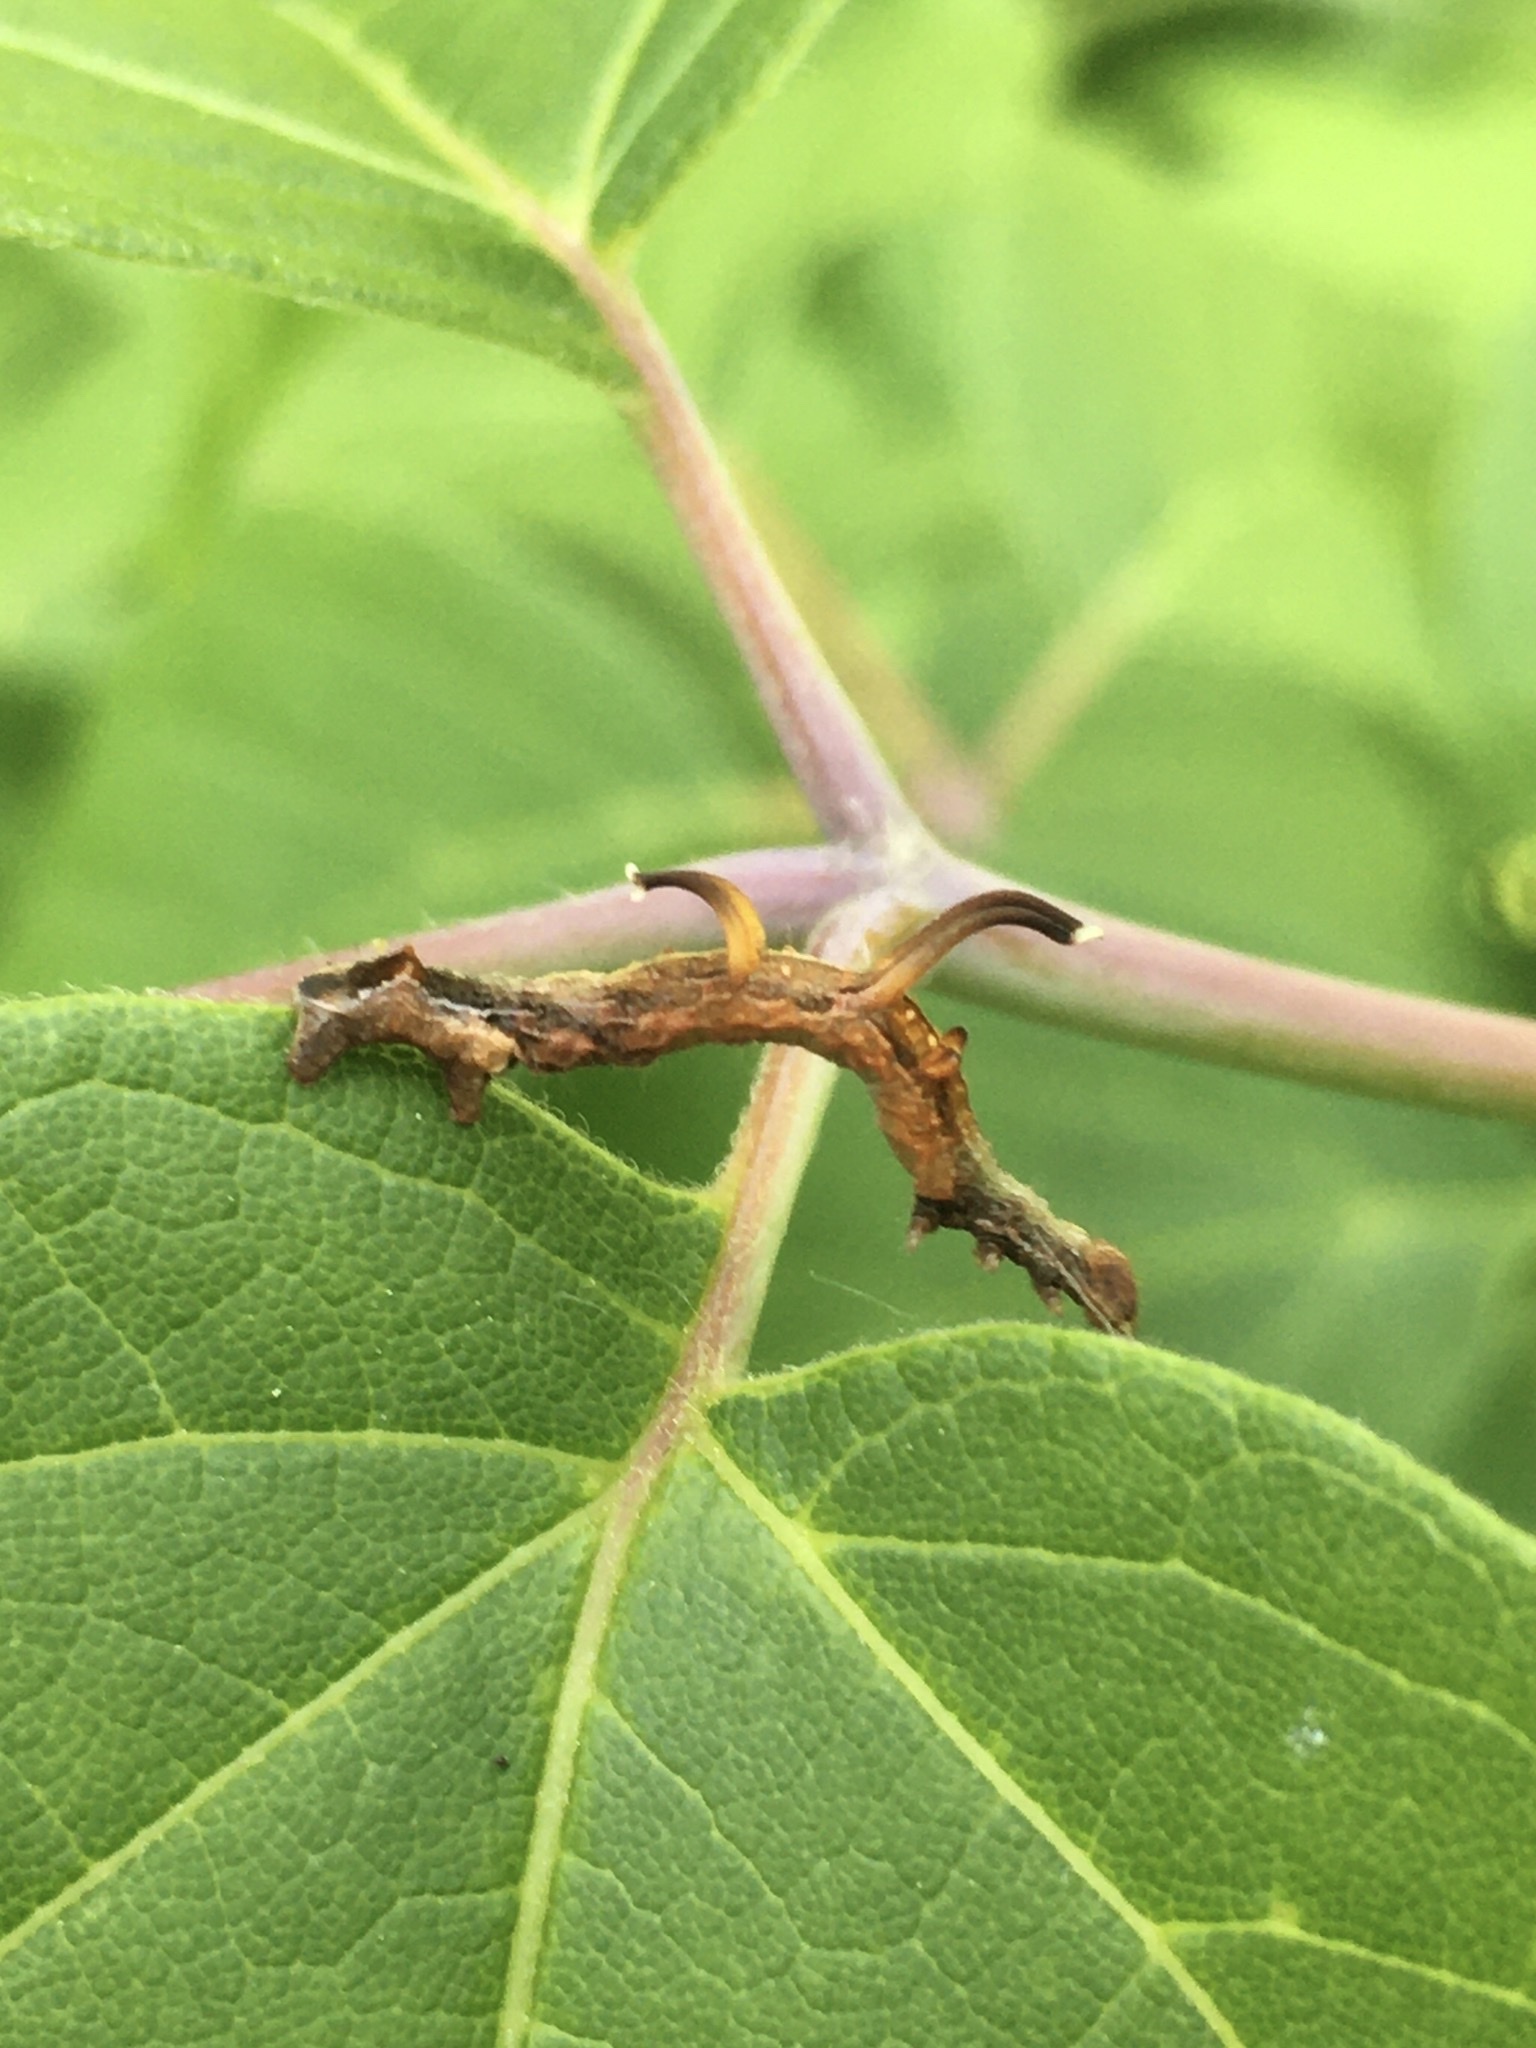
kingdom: Animalia
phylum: Arthropoda
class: Insecta
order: Lepidoptera
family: Geometridae
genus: Nematocampa
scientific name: Nematocampa resistaria
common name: Horned spanworm moth
